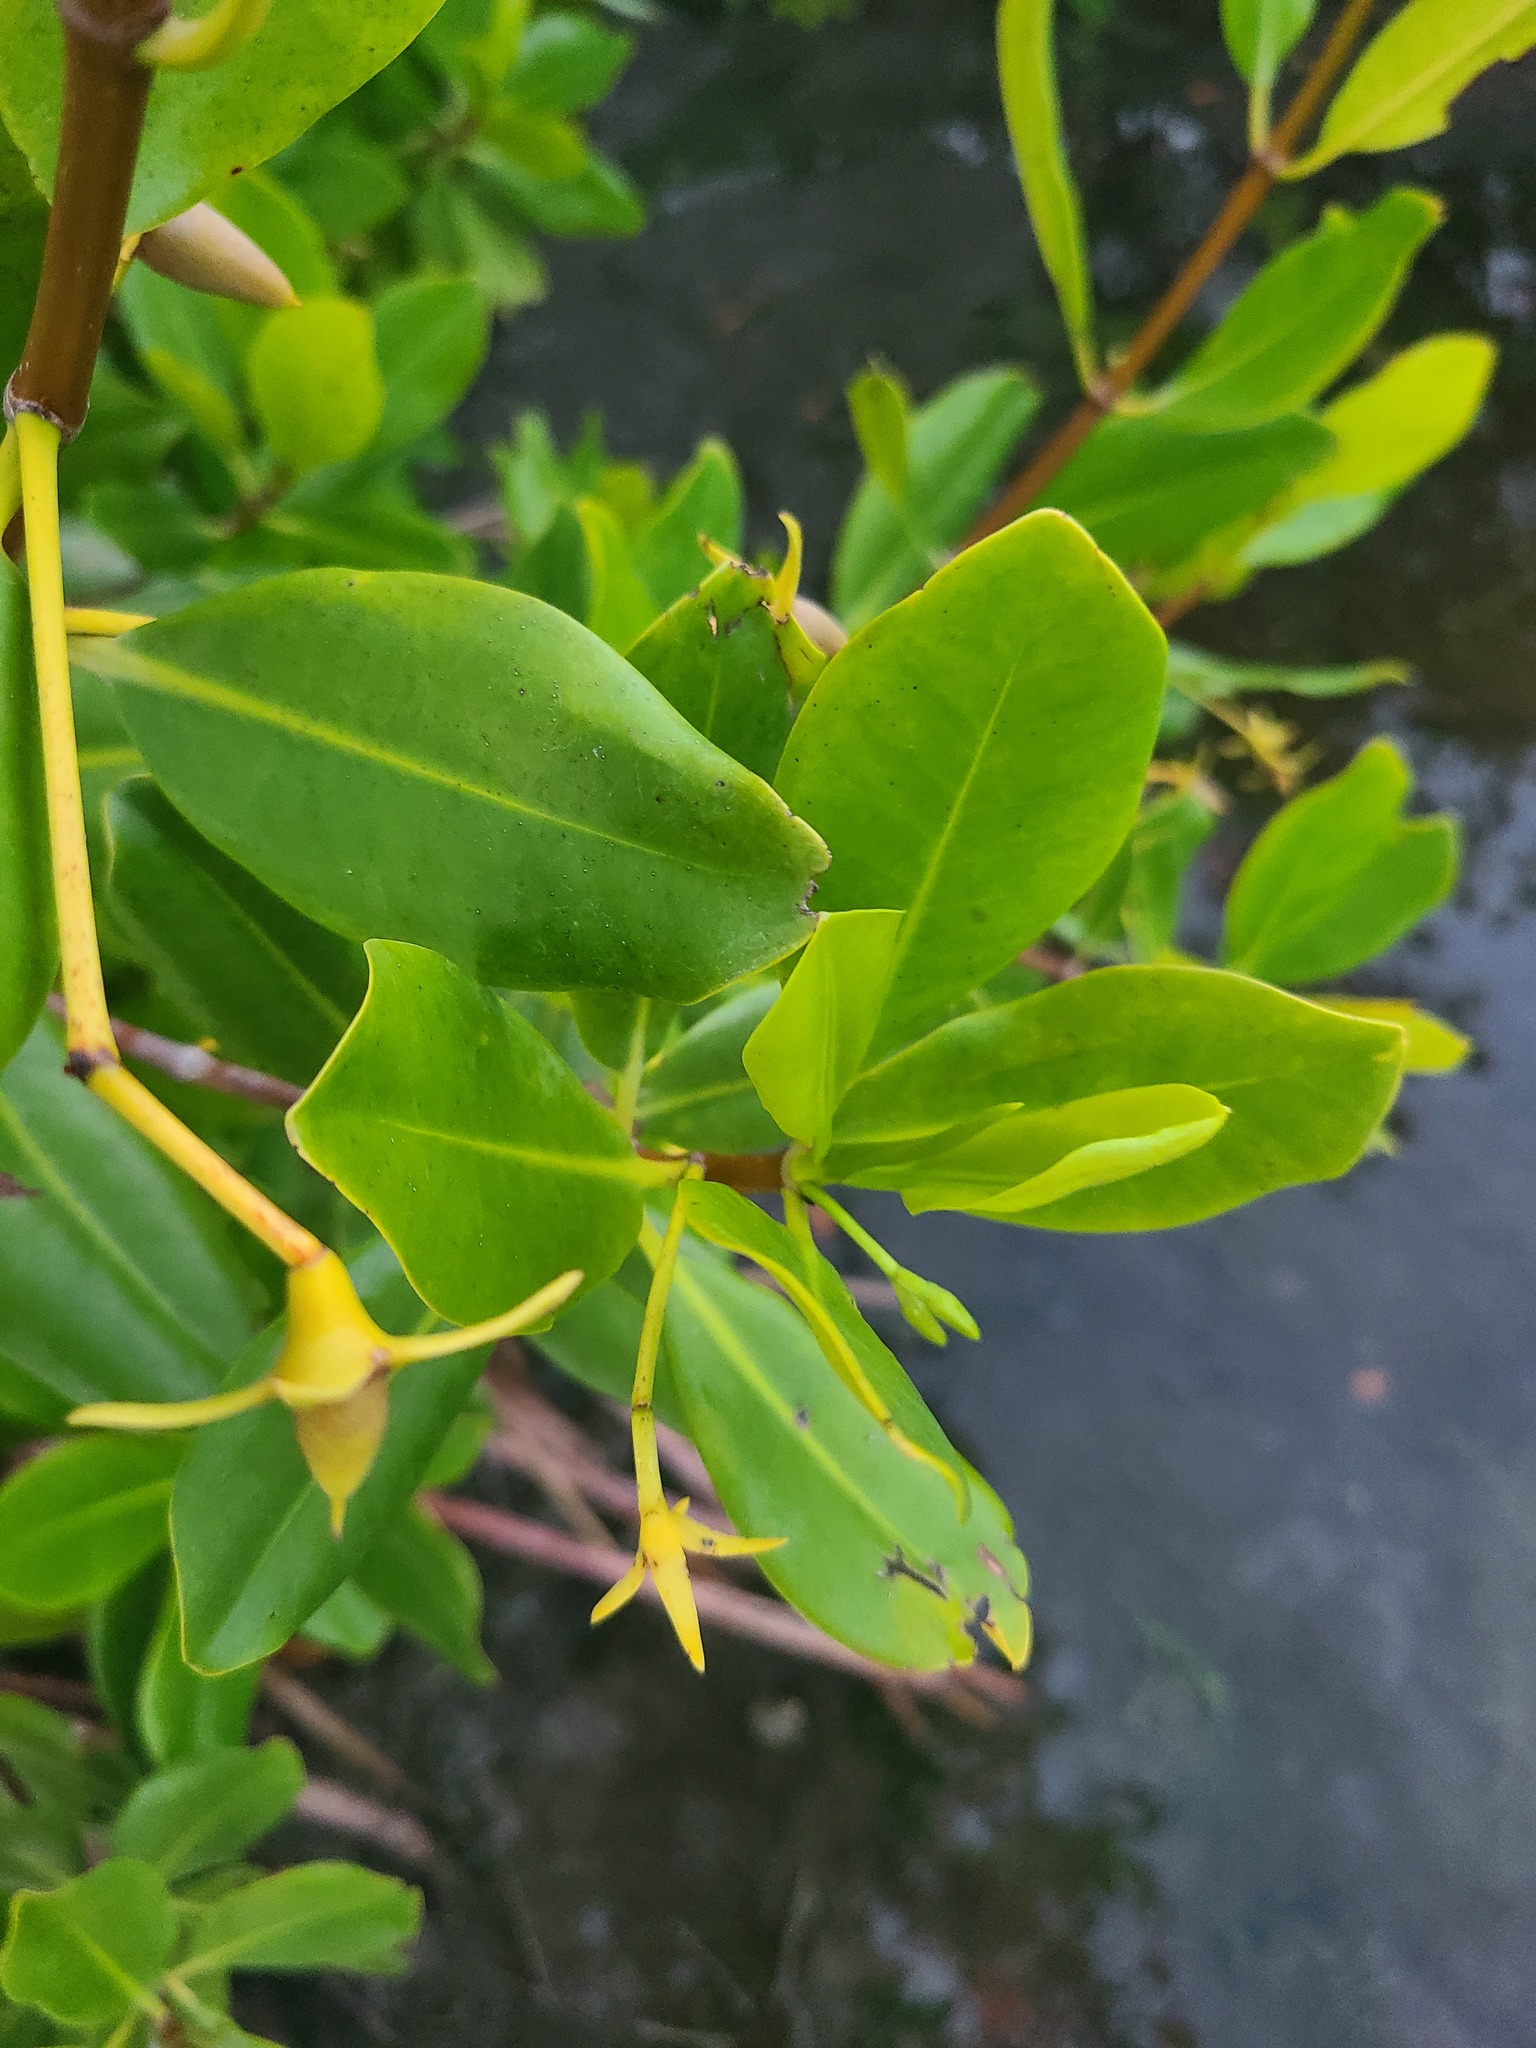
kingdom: Plantae
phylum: Tracheophyta
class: Magnoliopsida
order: Malpighiales
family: Rhizophoraceae
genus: Rhizophora
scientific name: Rhizophora mangle
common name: Red mangrove
